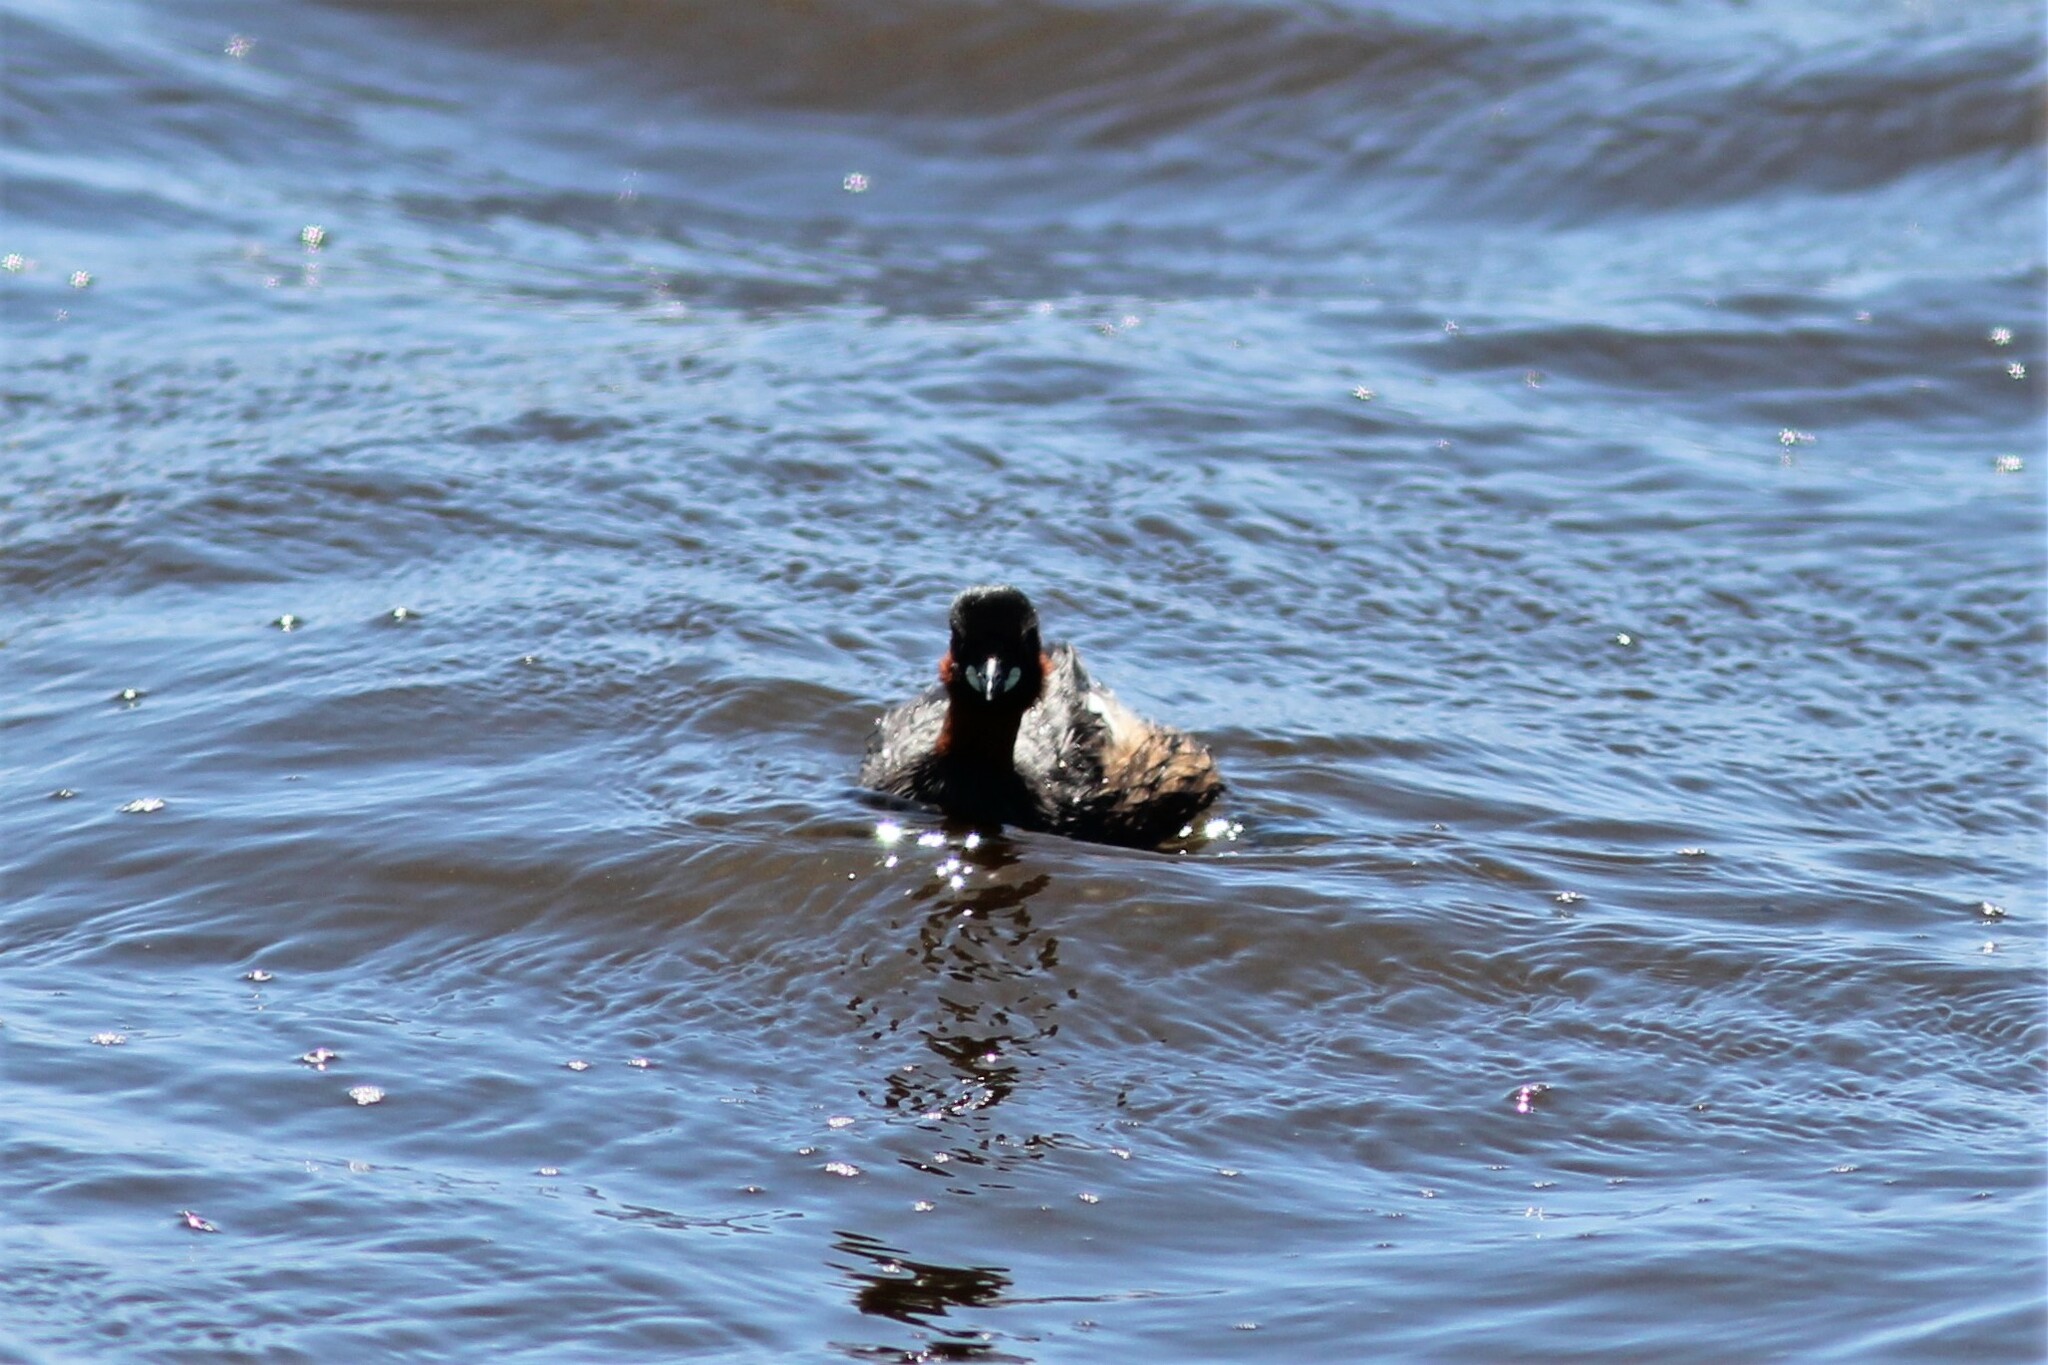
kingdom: Animalia
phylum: Chordata
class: Aves
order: Podicipediformes
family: Podicipedidae
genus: Tachybaptus
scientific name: Tachybaptus ruficollis
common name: Little grebe
